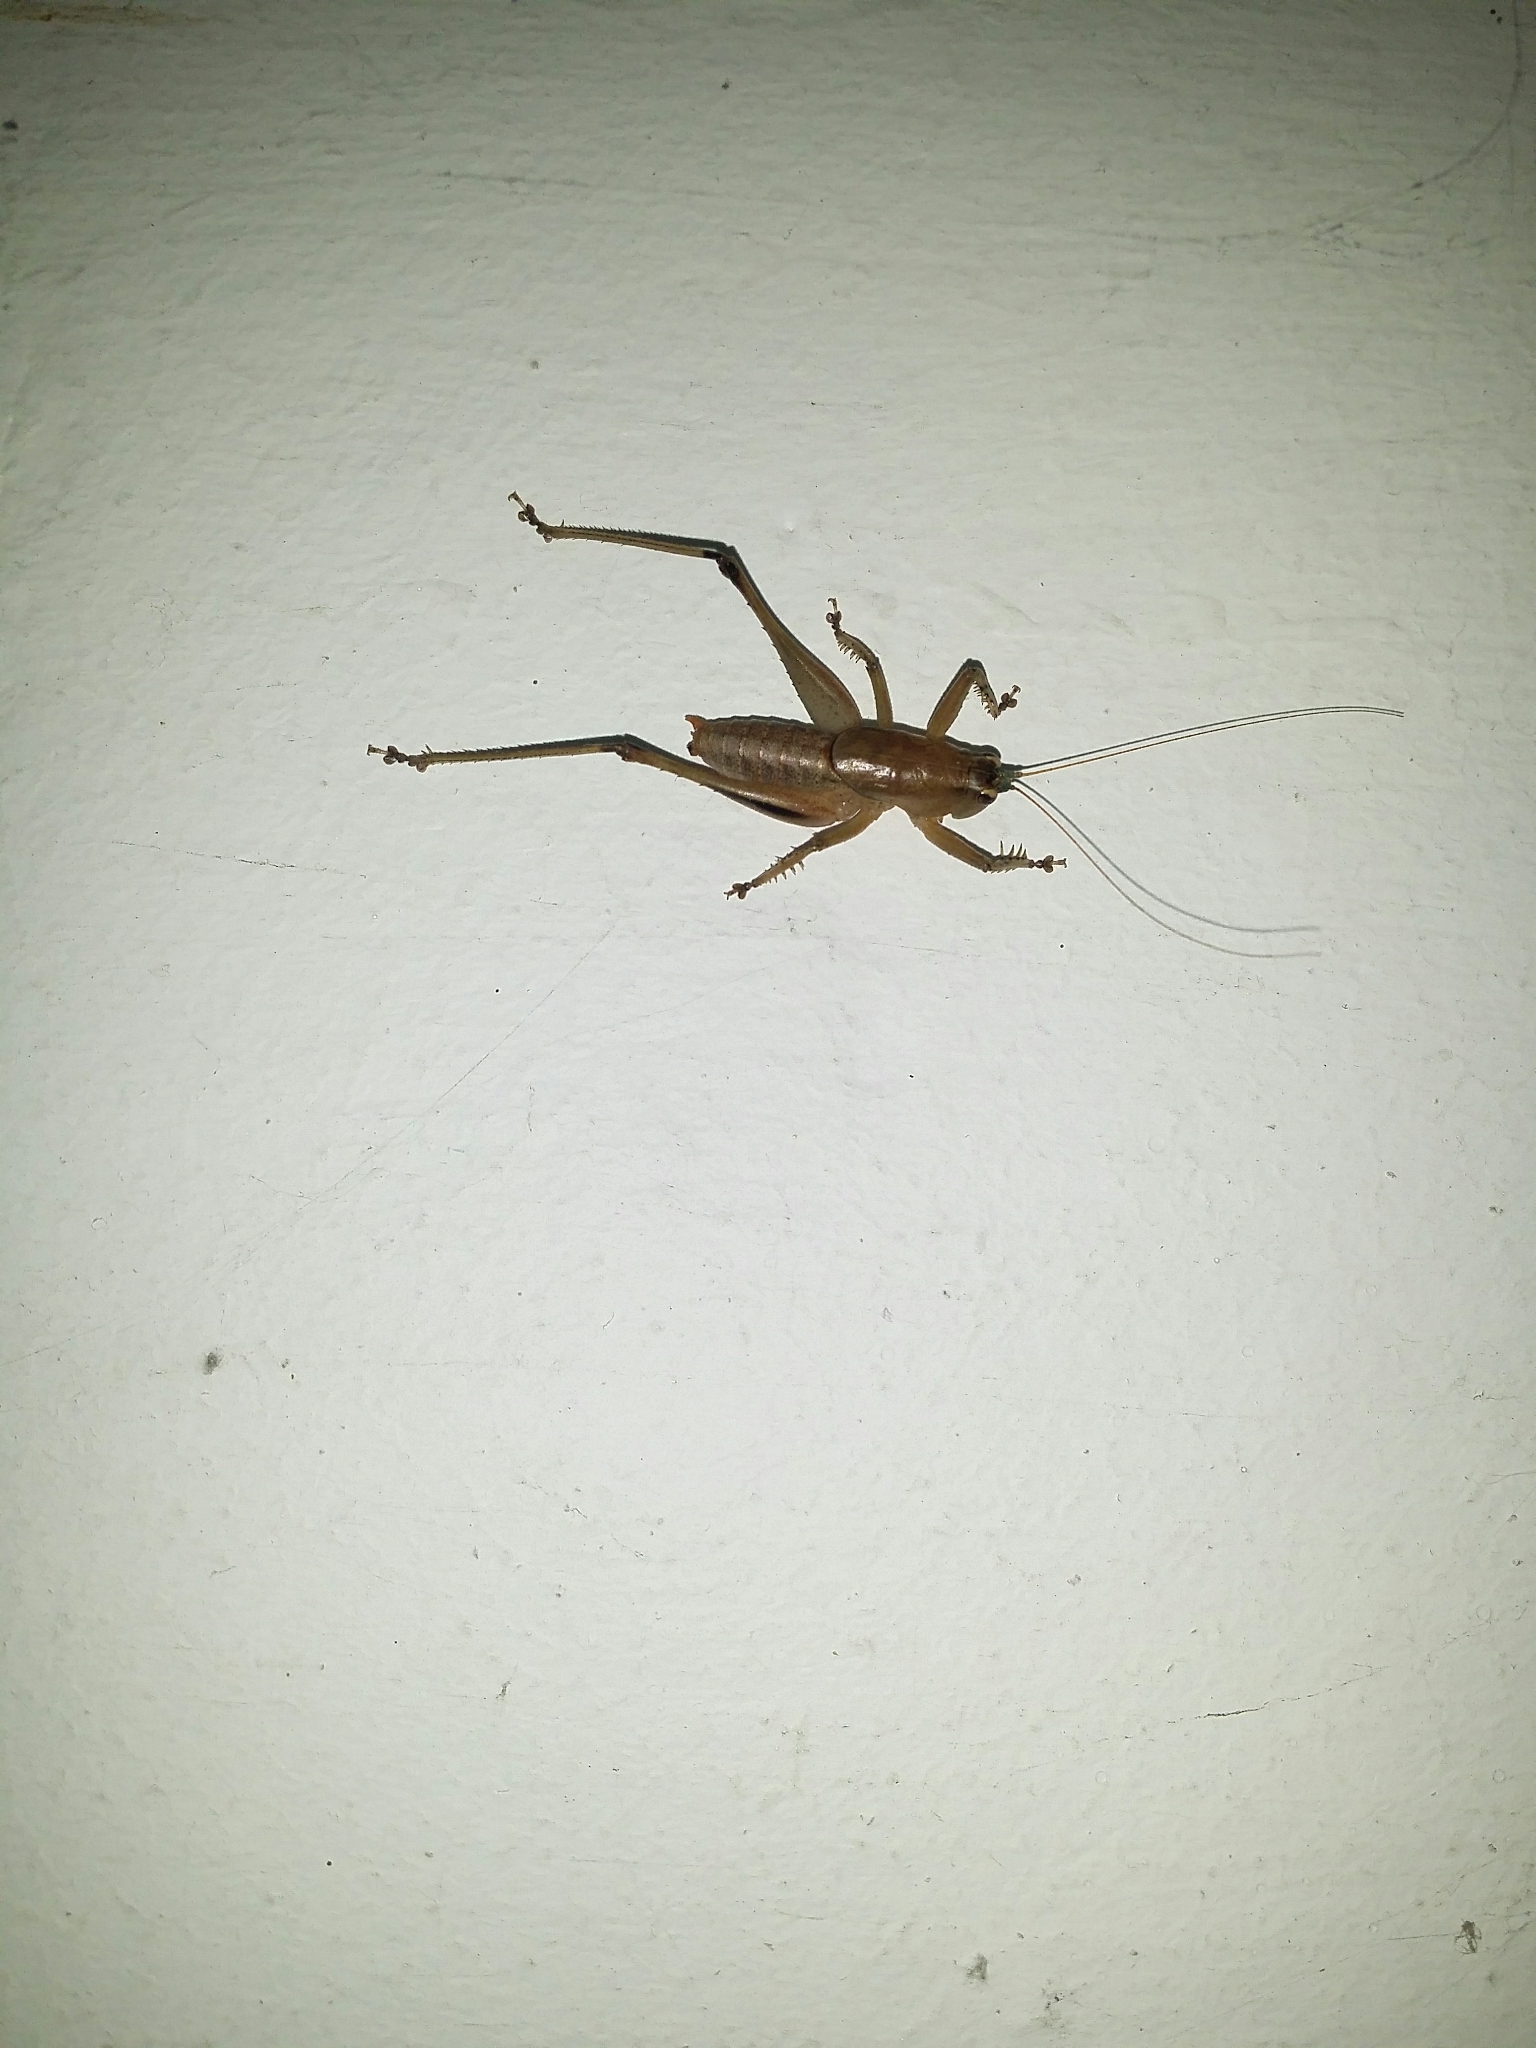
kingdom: Animalia
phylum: Arthropoda
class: Insecta
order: Orthoptera
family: Tettigoniidae
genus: Requena
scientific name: Requena verticalis
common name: Common western requena
